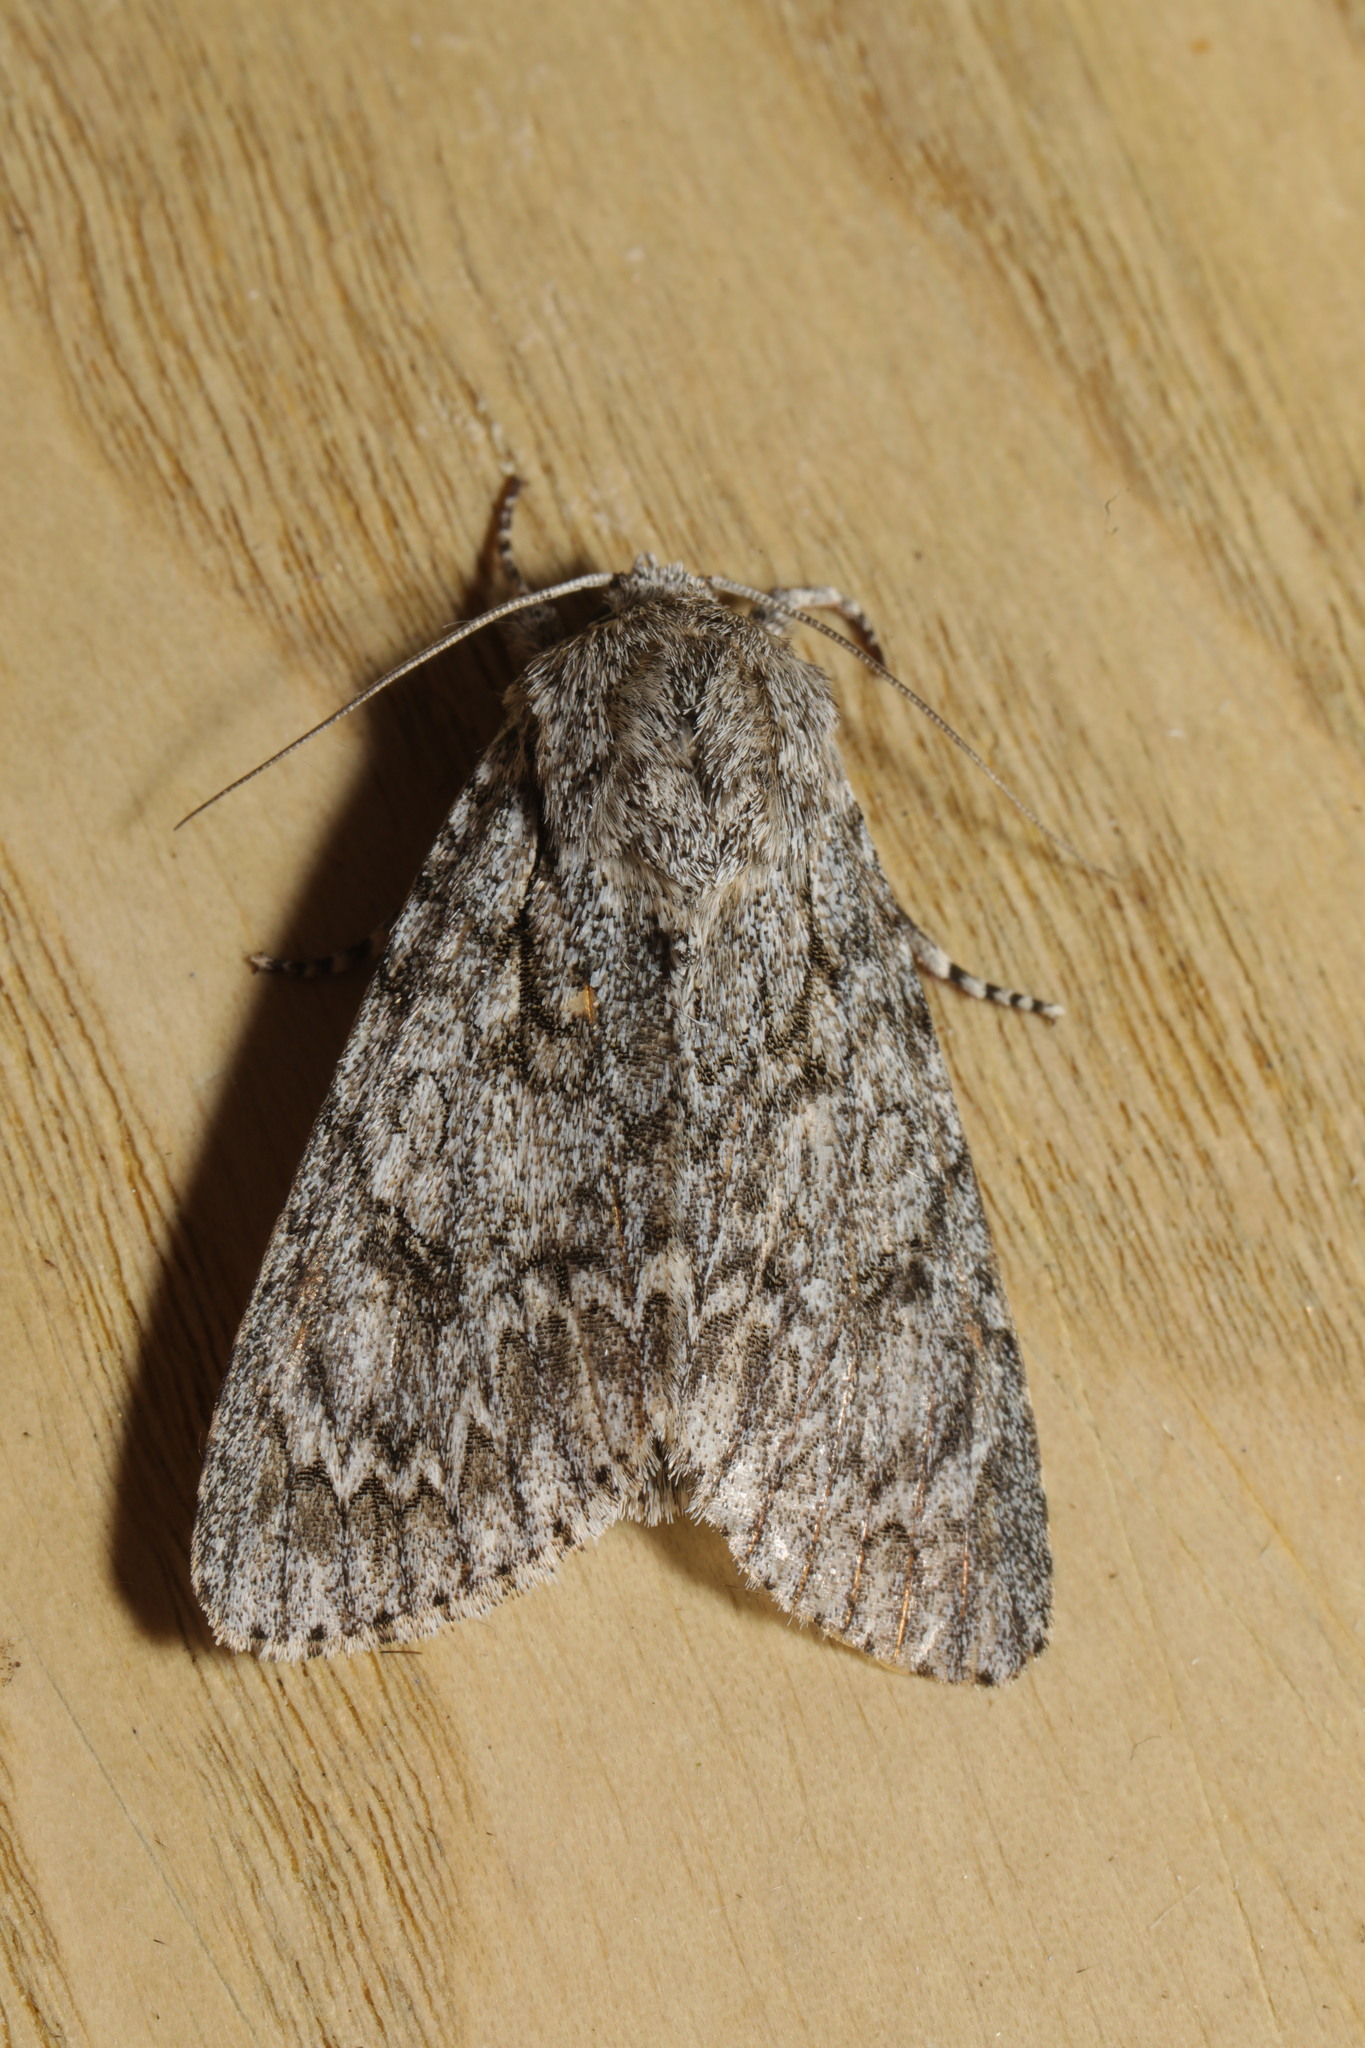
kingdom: Animalia
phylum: Arthropoda
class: Insecta
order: Lepidoptera
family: Noctuidae
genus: Acronicta
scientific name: Acronicta aceris
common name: Sycamore
